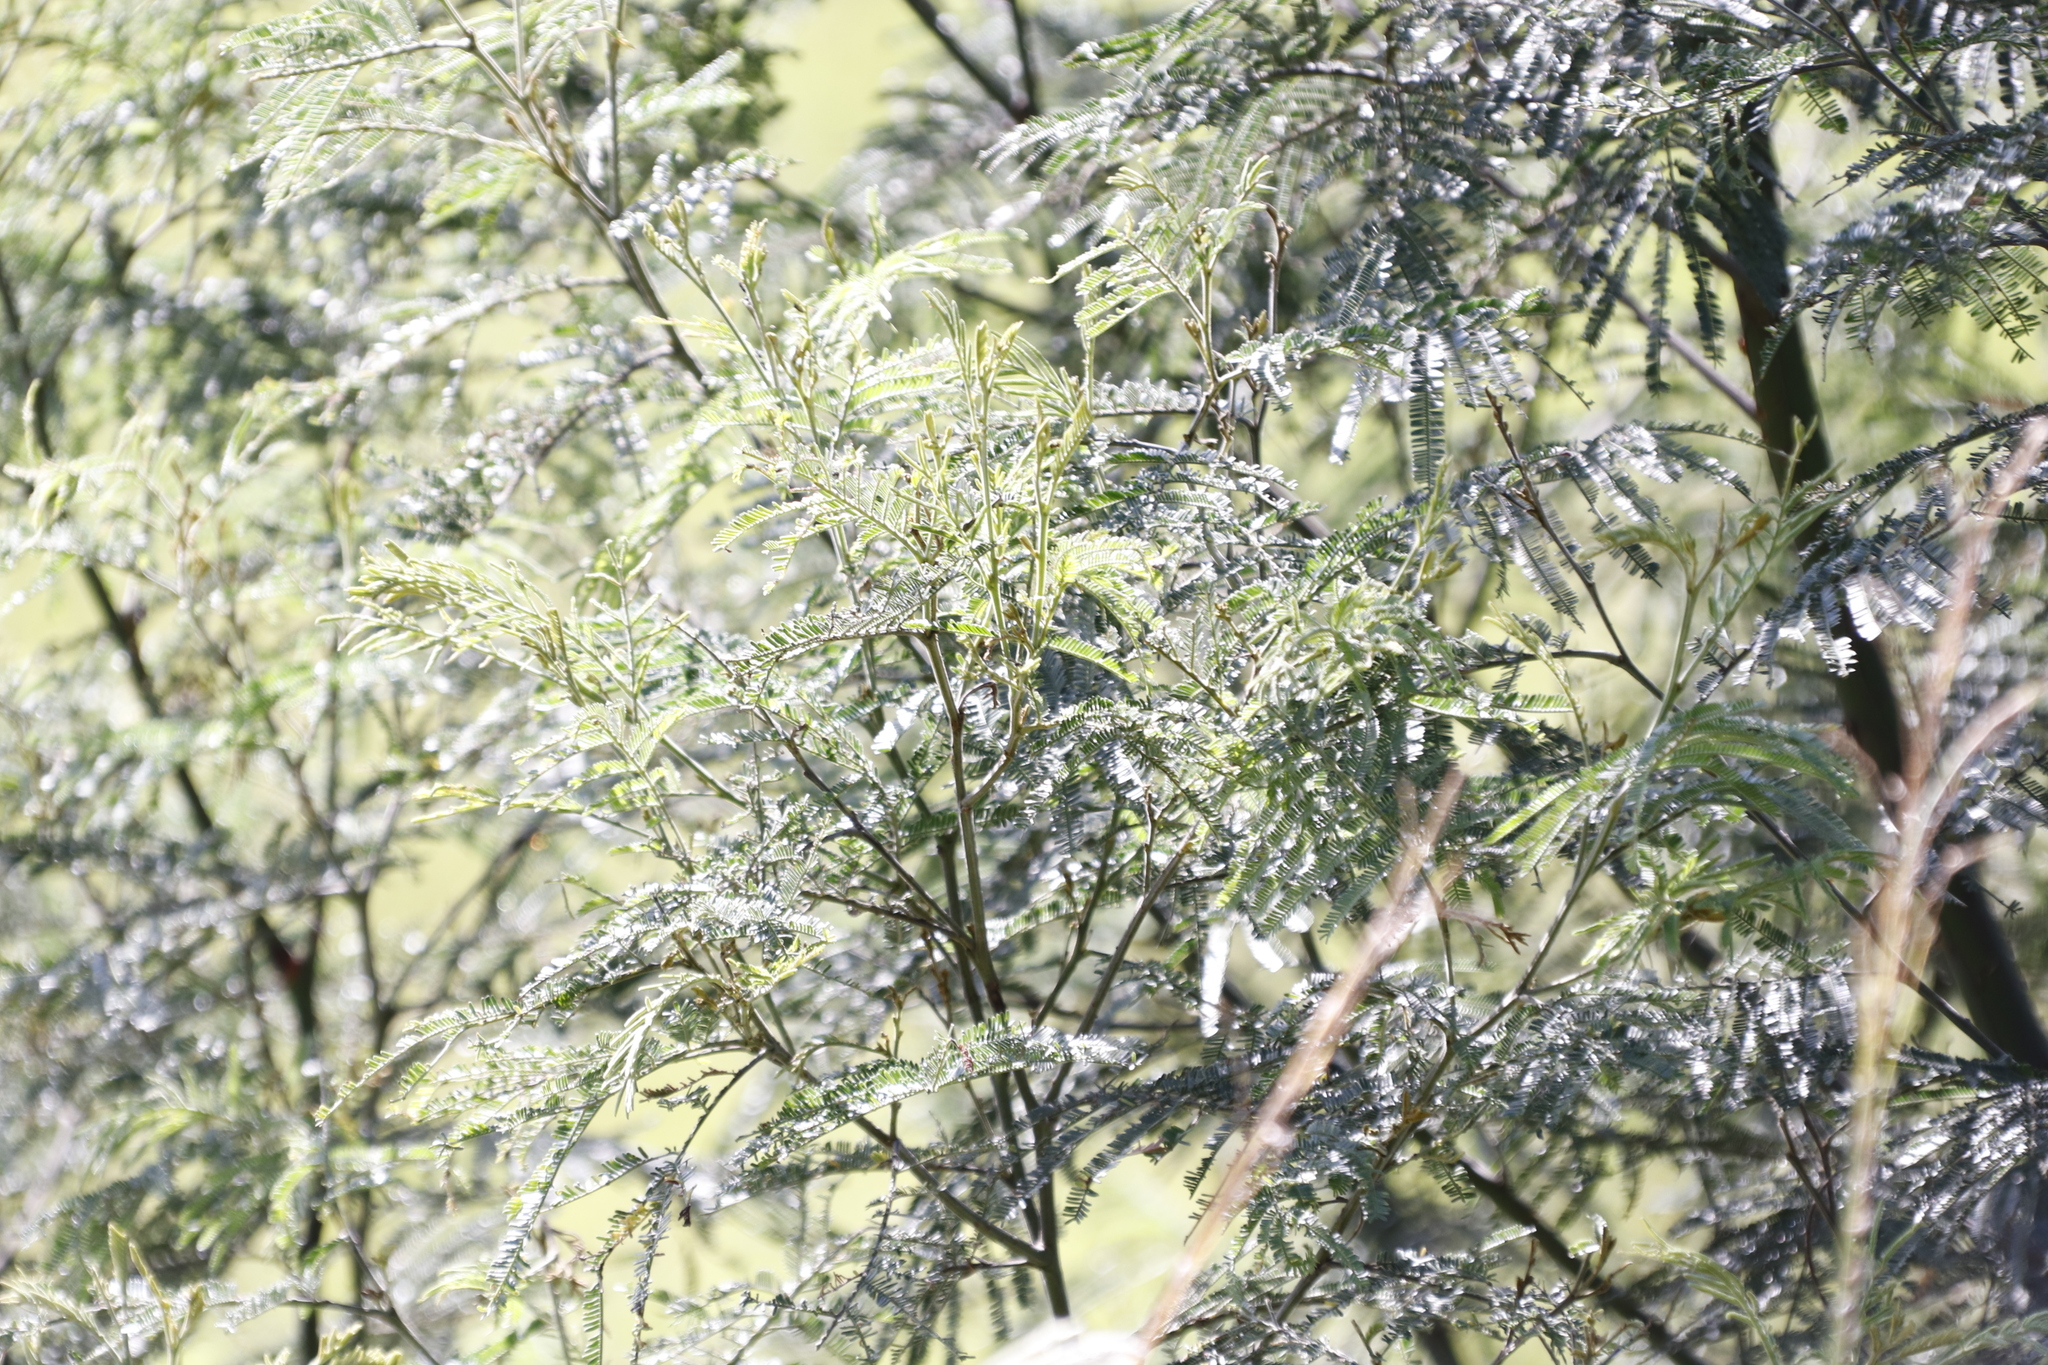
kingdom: Plantae
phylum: Tracheophyta
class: Magnoliopsida
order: Fabales
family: Fabaceae
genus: Acacia
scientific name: Acacia dealbata
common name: Silver wattle
